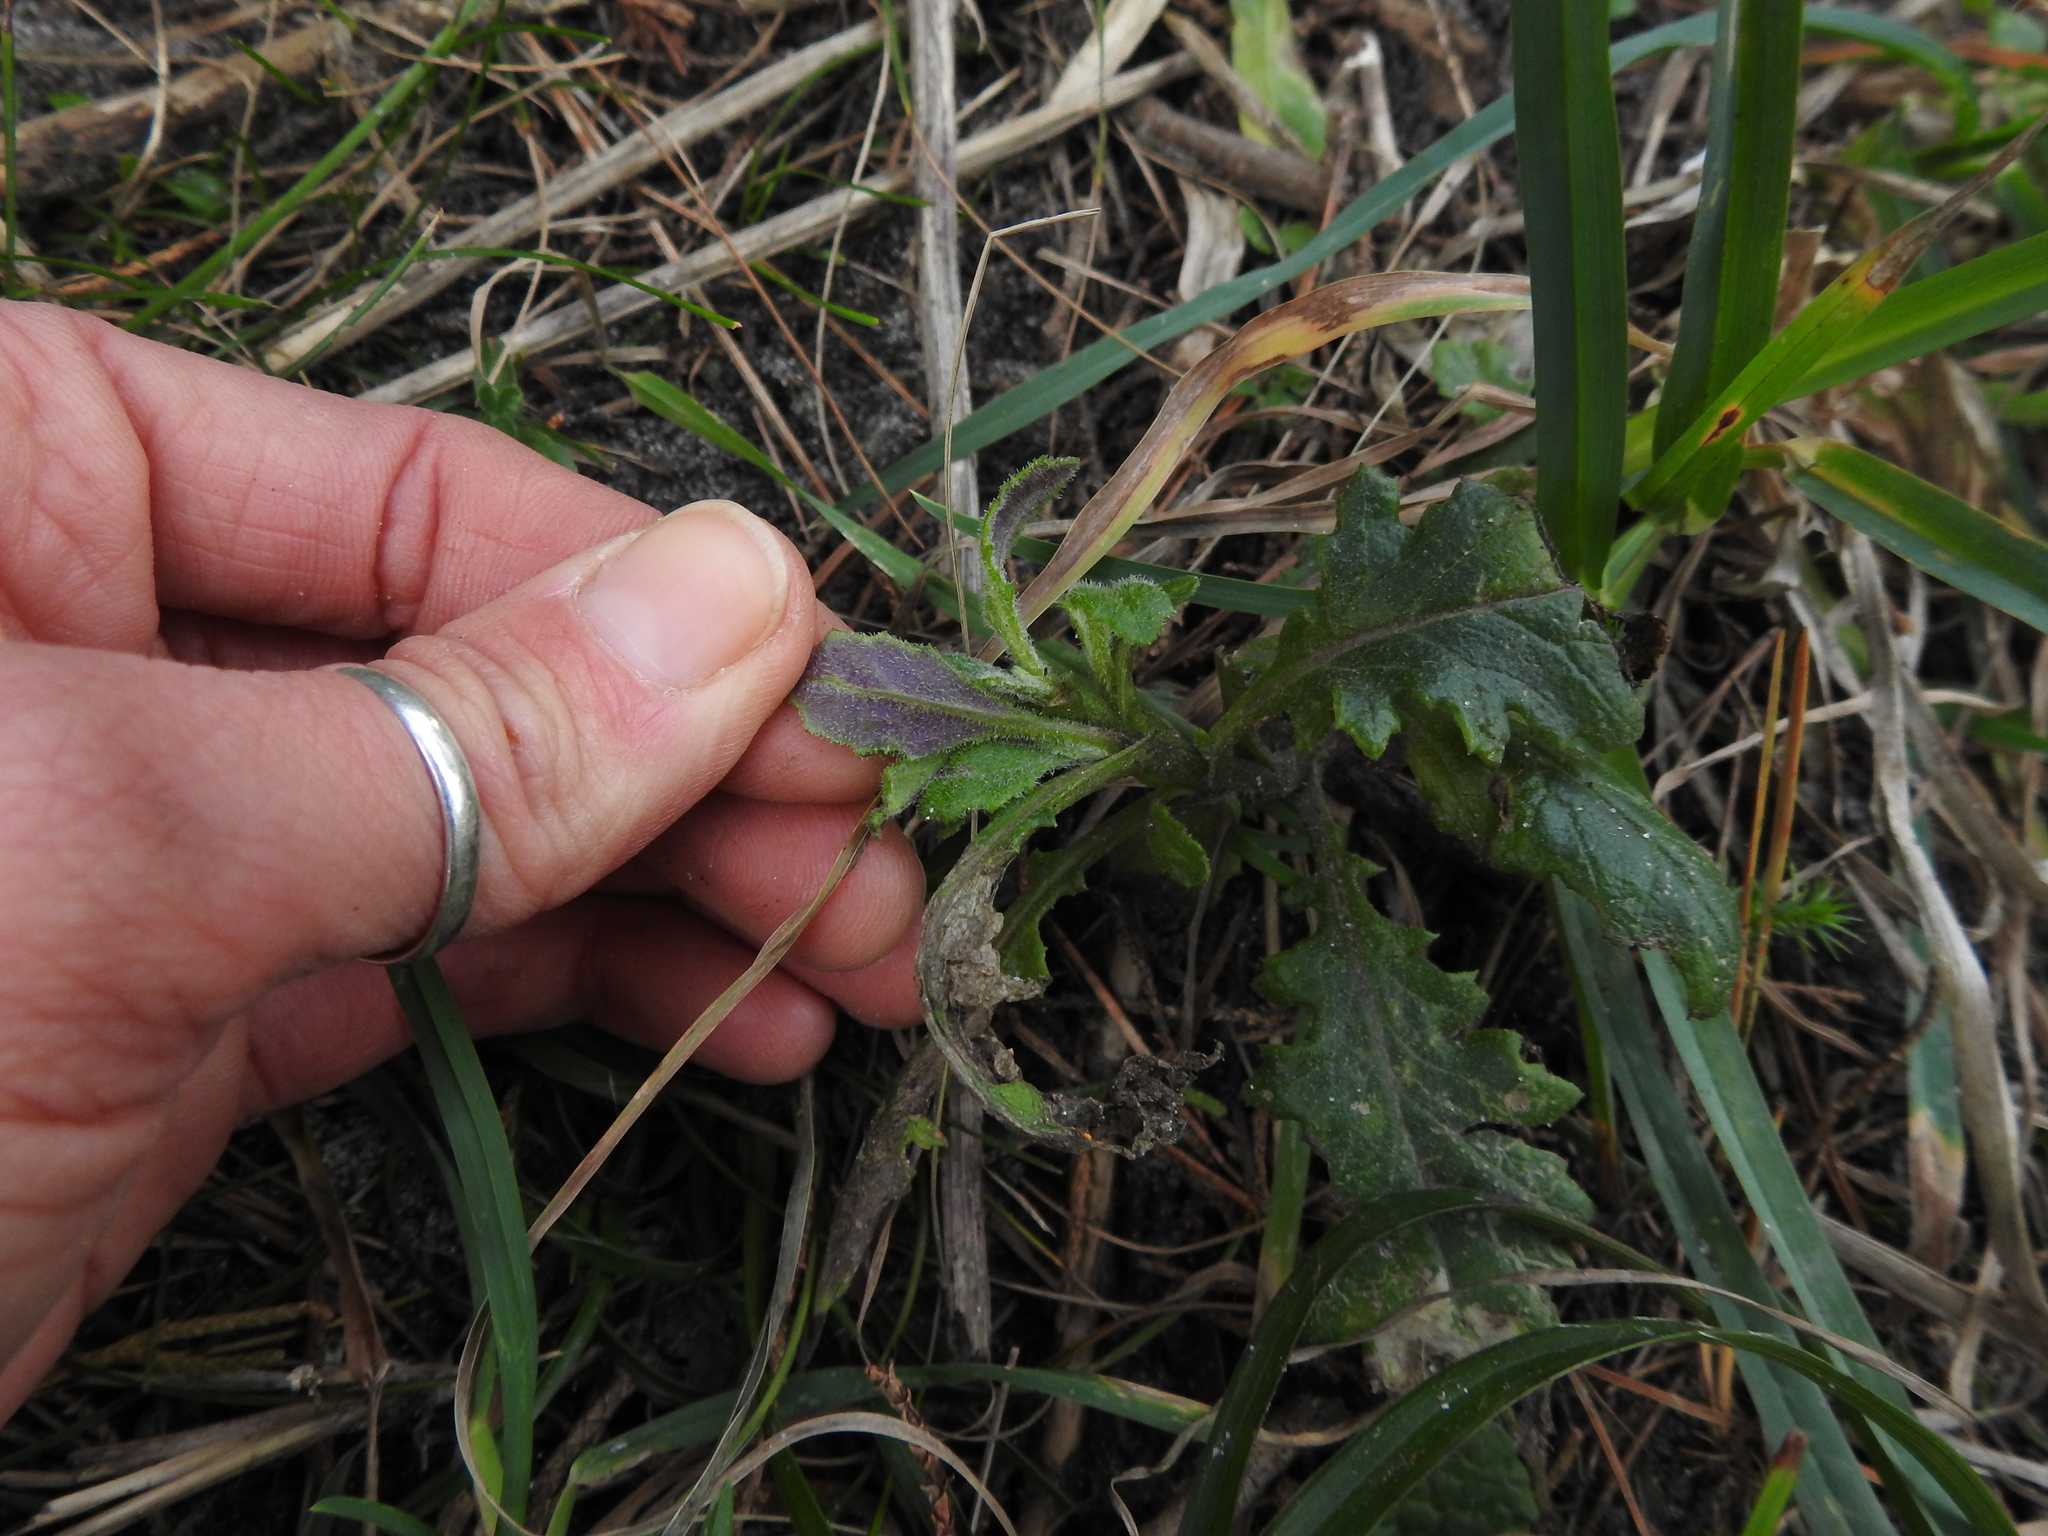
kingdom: Plantae
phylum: Tracheophyta
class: Magnoliopsida
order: Asterales
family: Asteraceae
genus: Senecio
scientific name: Senecio glomeratus
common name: Cutleaf burnweed
